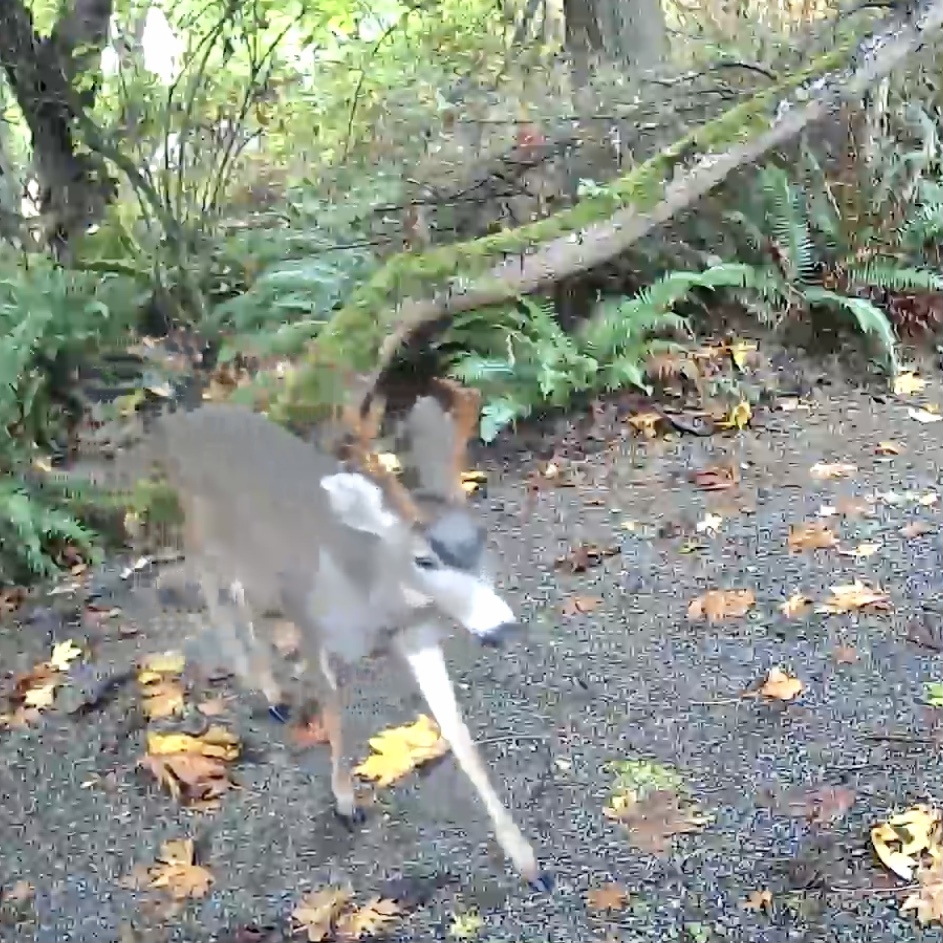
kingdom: Animalia
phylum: Chordata
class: Mammalia
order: Artiodactyla
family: Cervidae
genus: Odocoileus
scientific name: Odocoileus hemionus
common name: Mule deer
